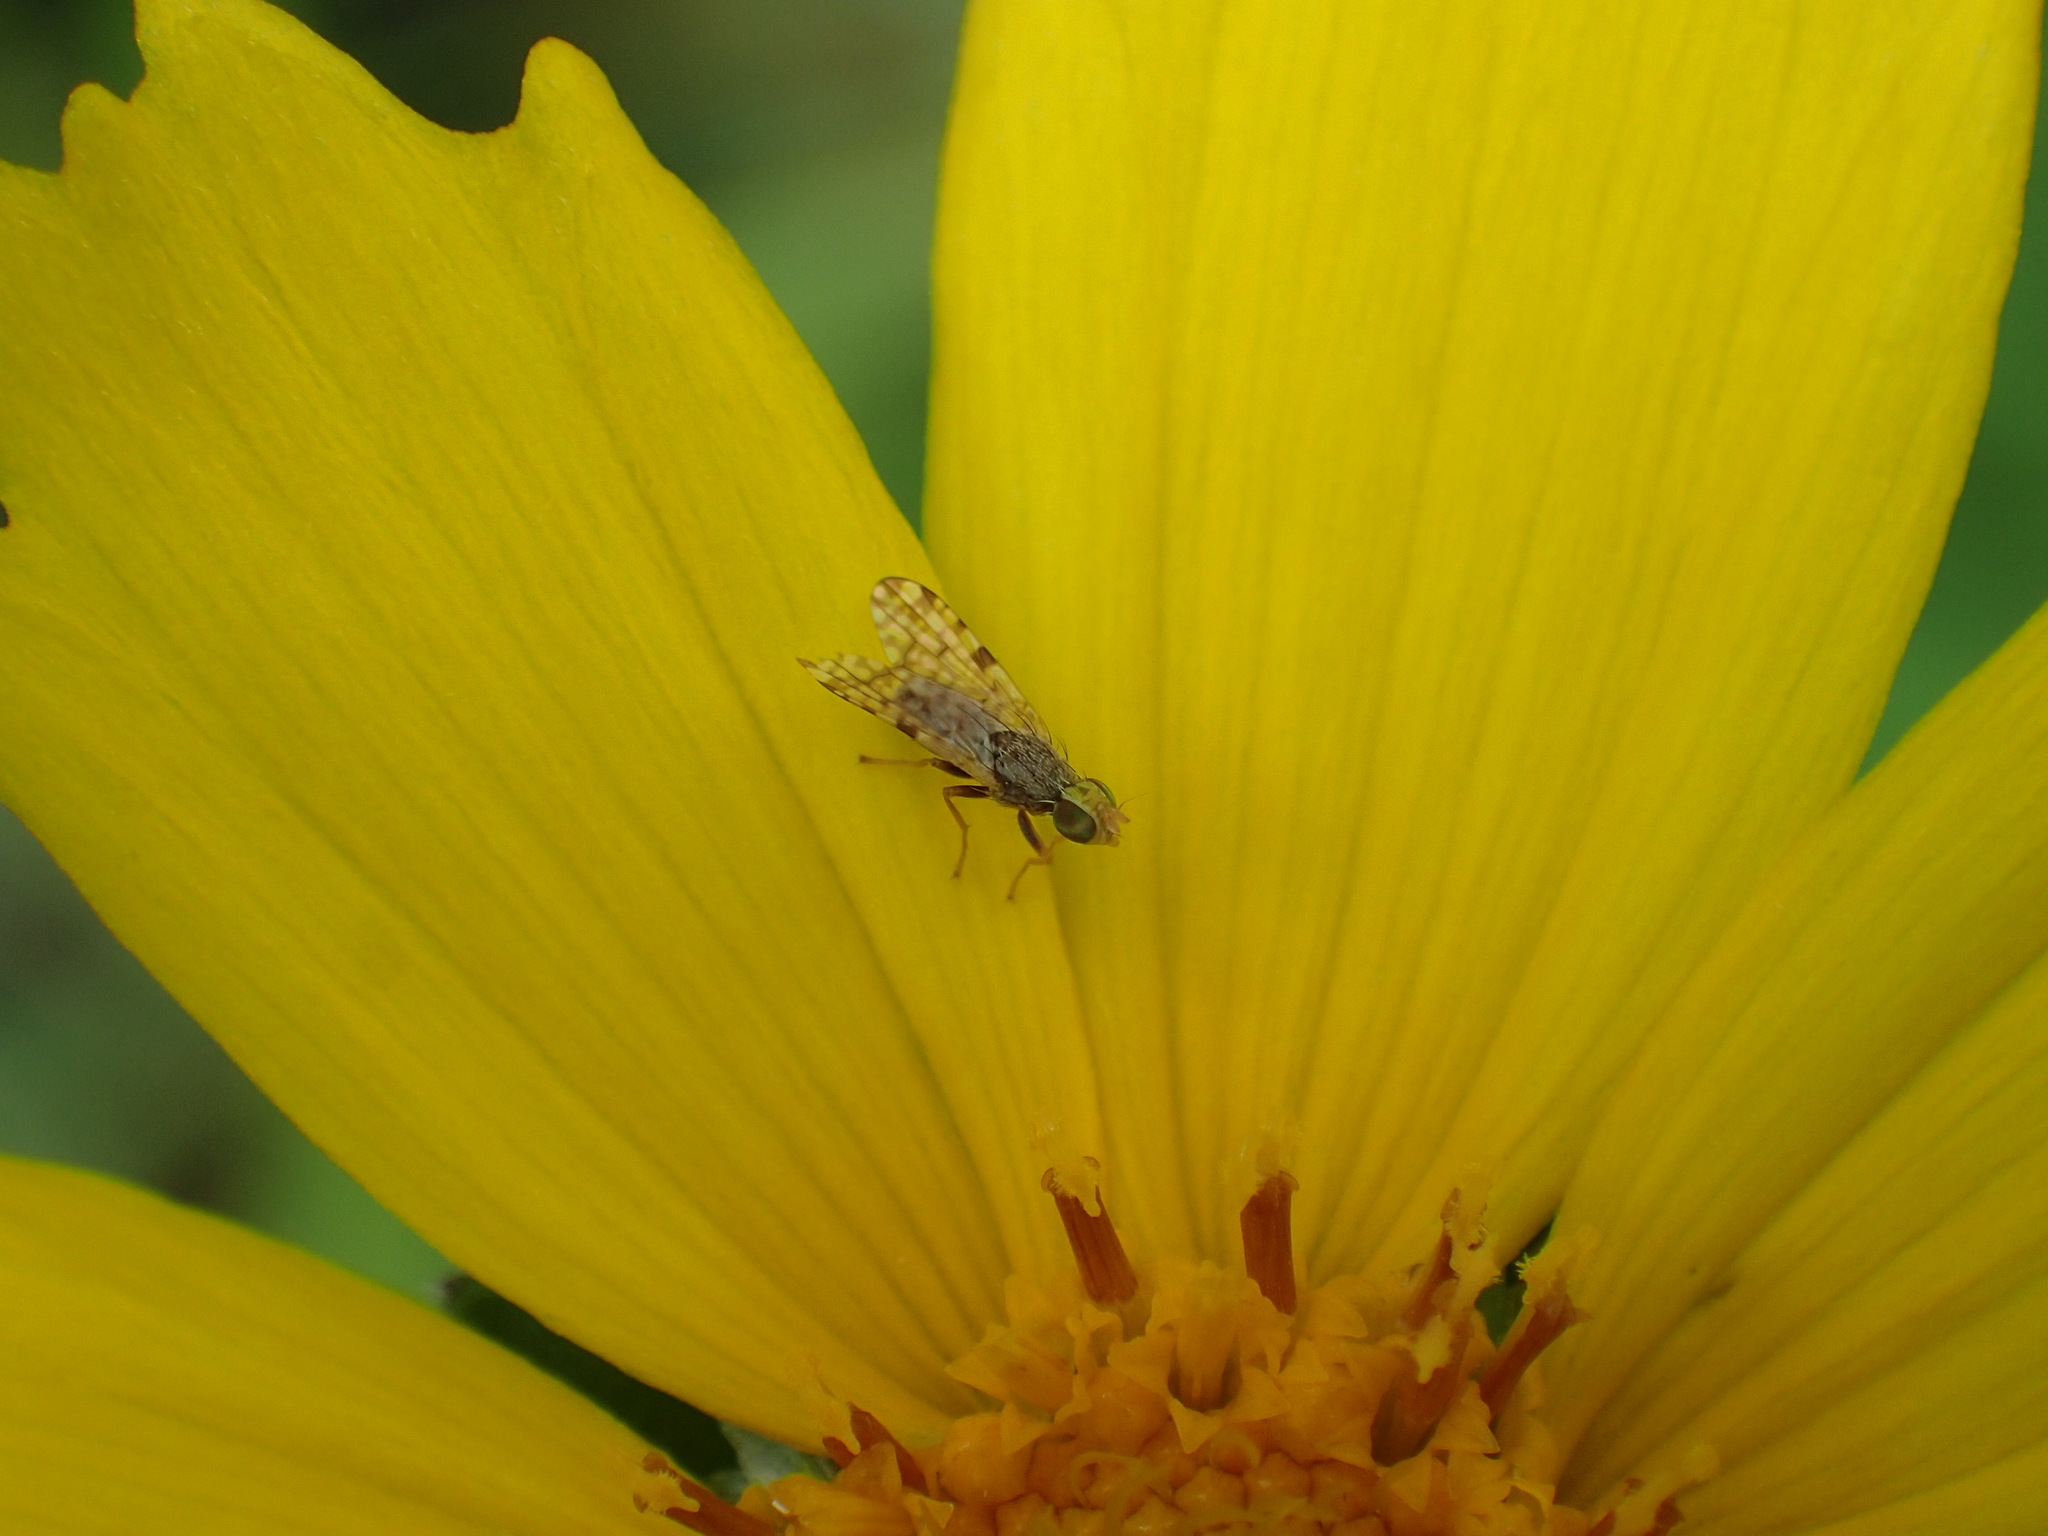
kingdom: Animalia
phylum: Arthropoda
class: Insecta
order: Diptera
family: Tephritidae
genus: Dioxyna
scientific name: Dioxyna picciola
